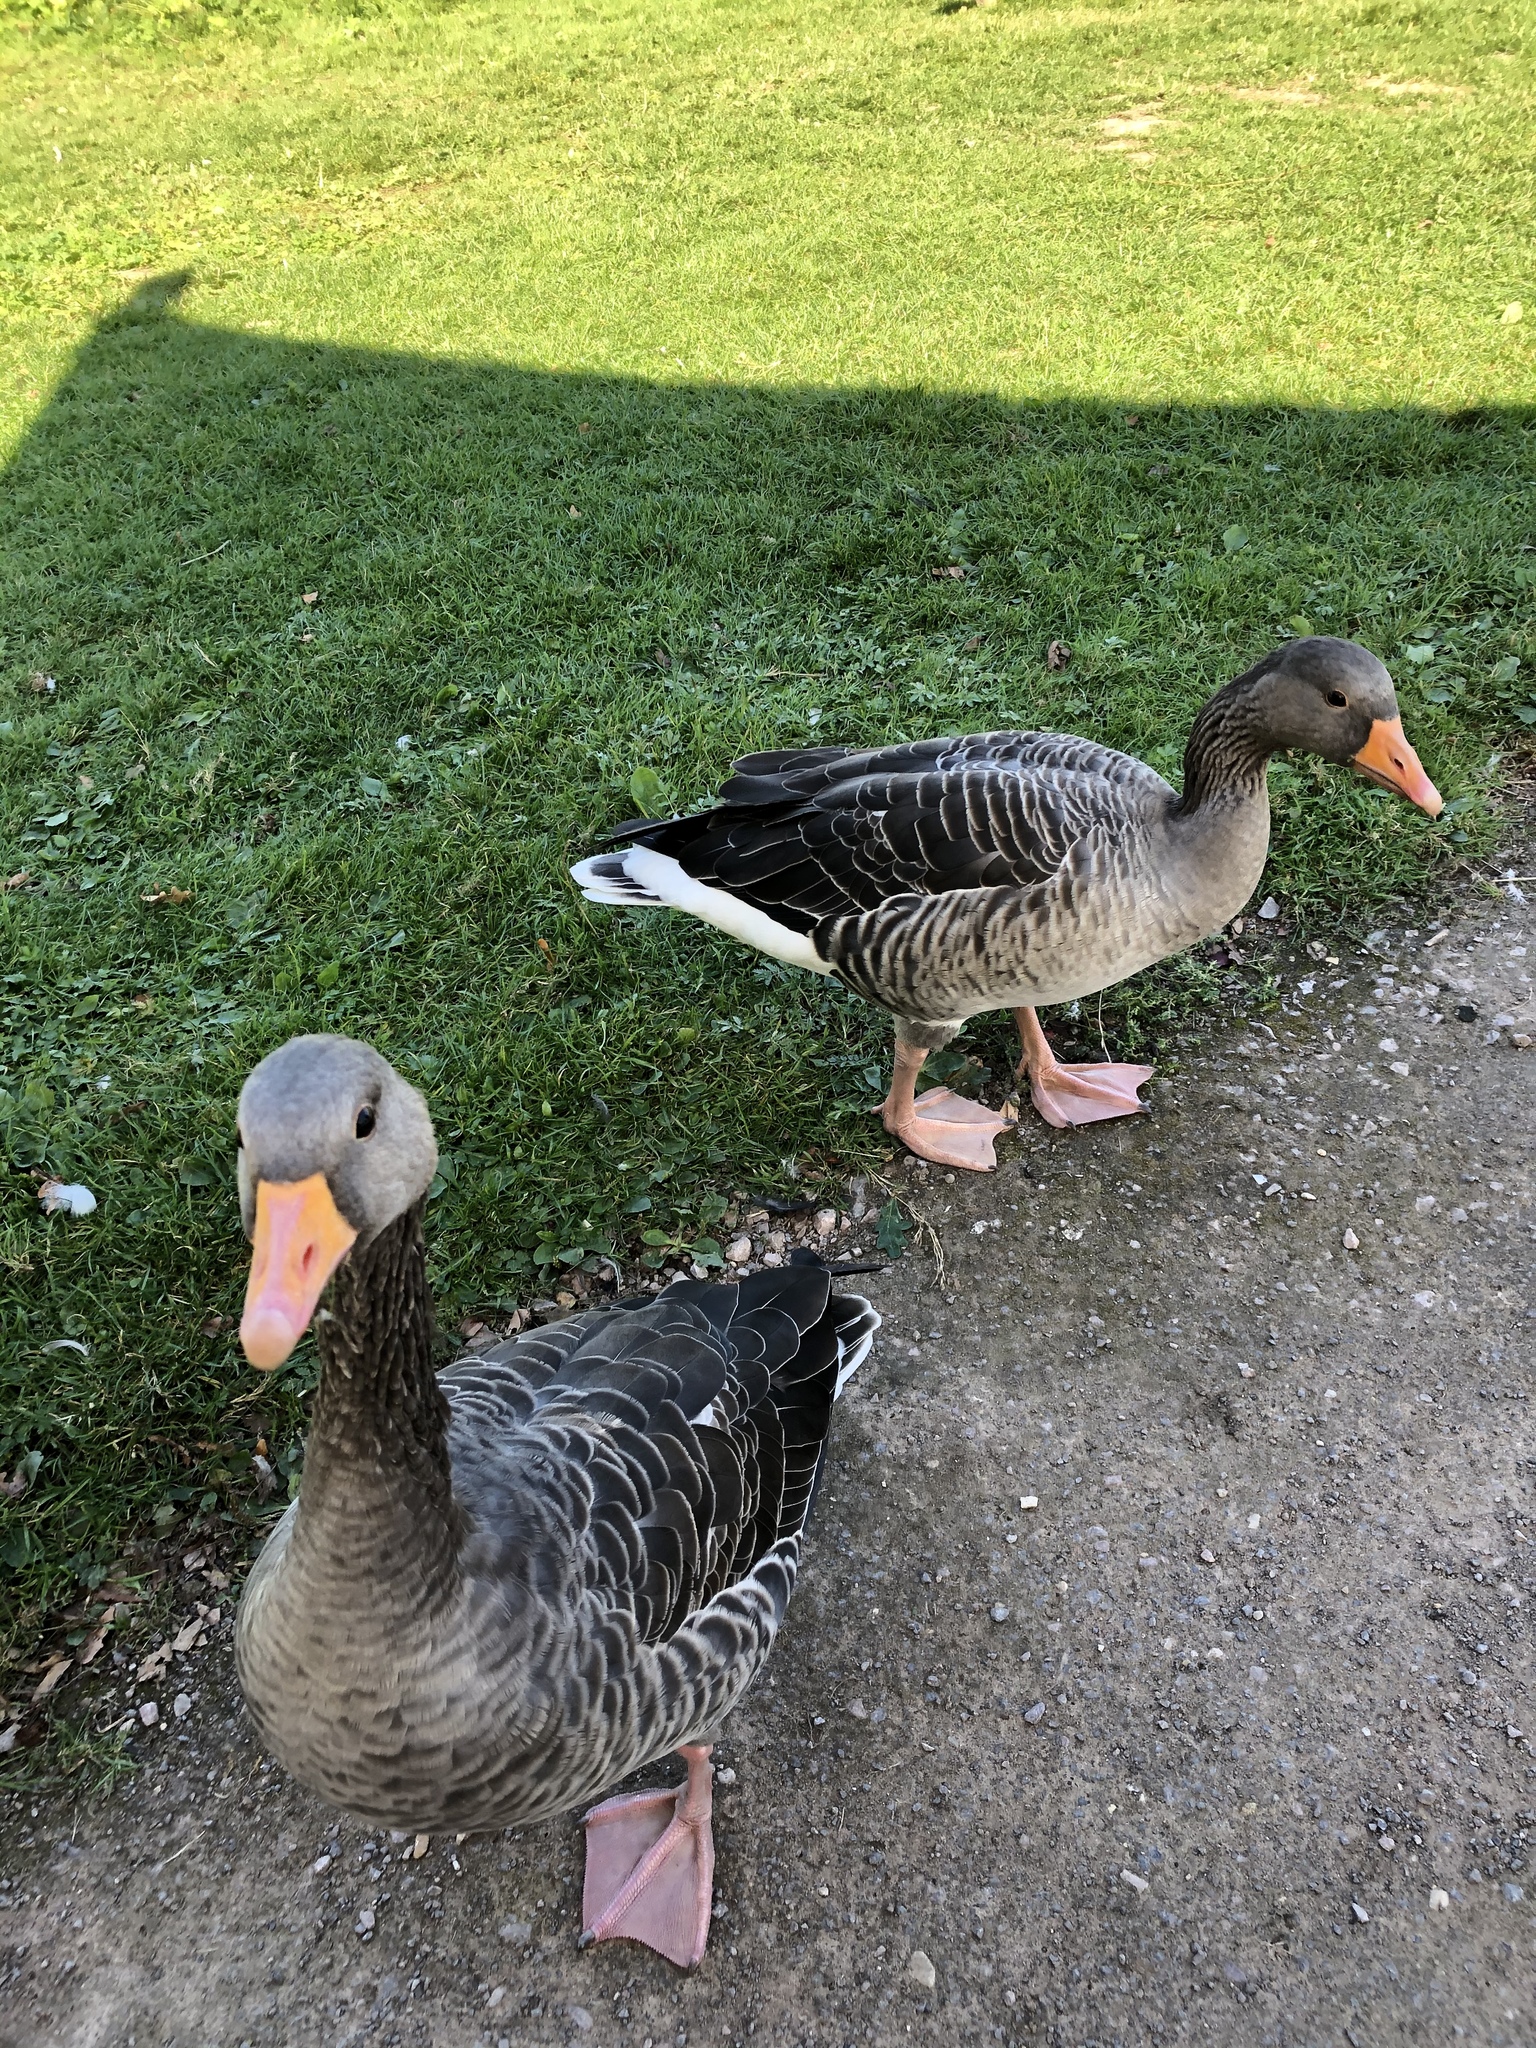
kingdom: Animalia
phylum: Chordata
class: Aves
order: Anseriformes
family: Anatidae
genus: Anser
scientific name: Anser anser
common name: Greylag goose
